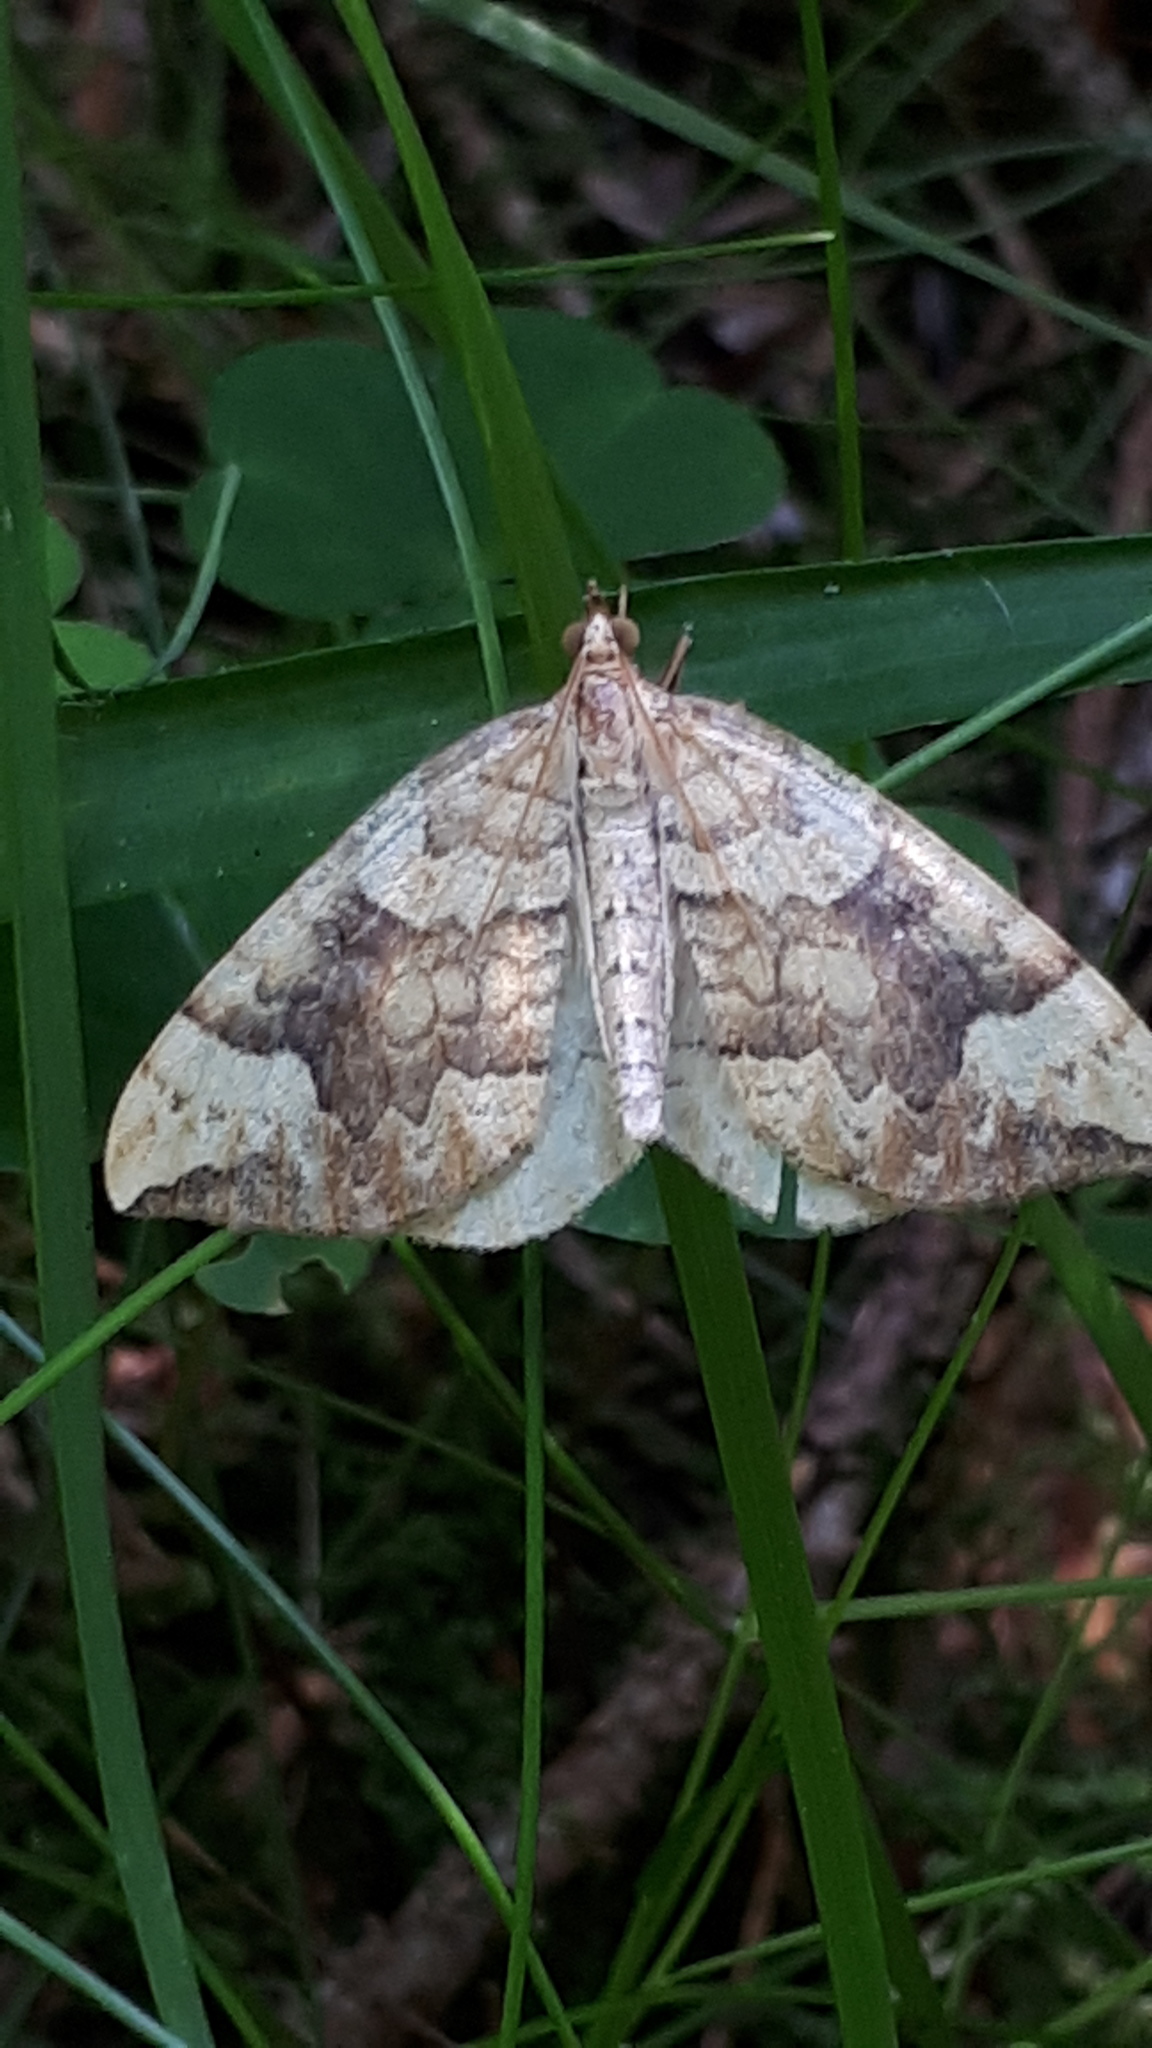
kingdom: Animalia
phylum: Arthropoda
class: Insecta
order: Lepidoptera
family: Geometridae
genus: Eulithis
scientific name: Eulithis populata
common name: Northern spinach
